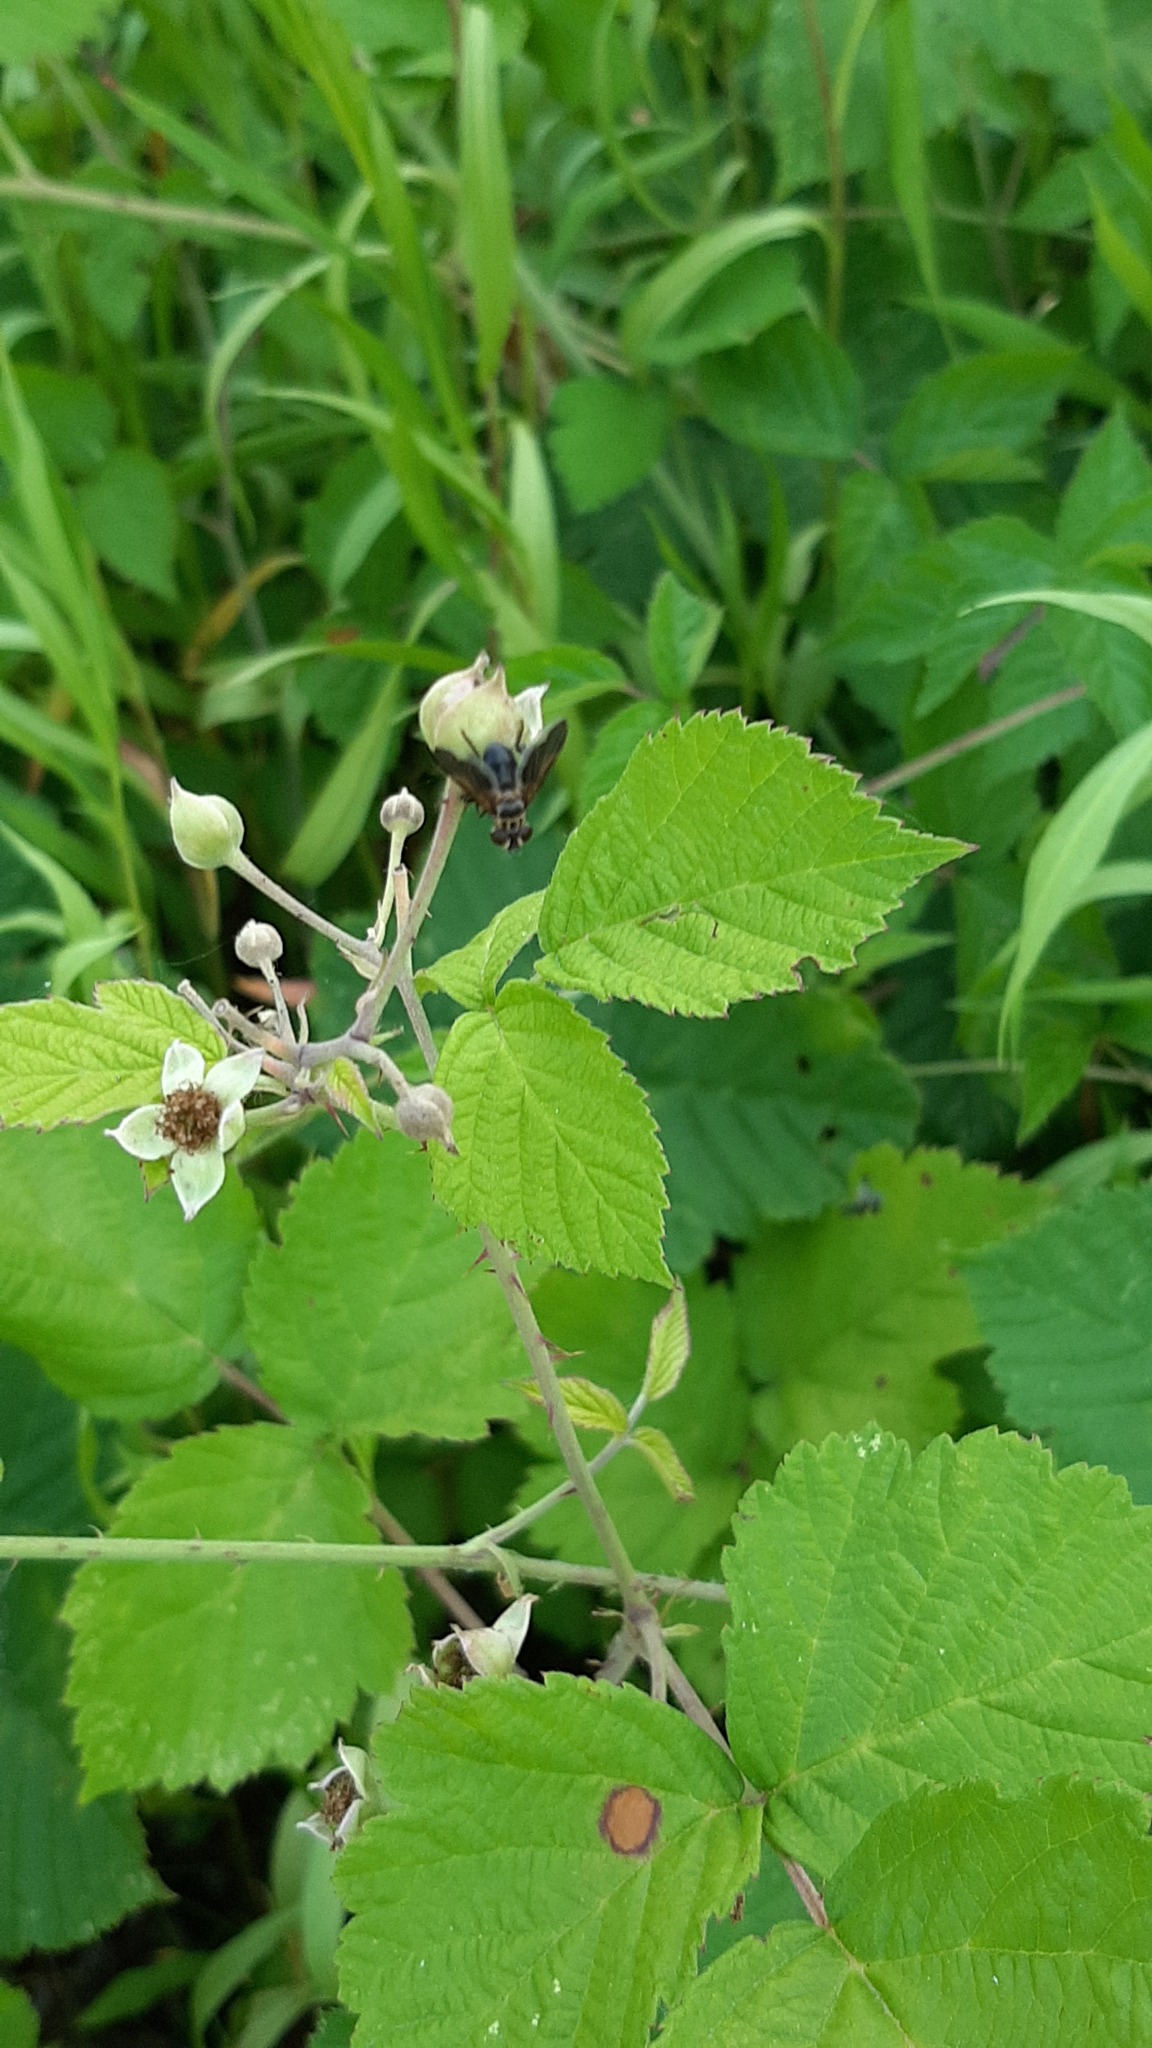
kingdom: Animalia
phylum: Arthropoda
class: Insecta
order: Diptera
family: Tachinidae
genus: Trichopoda
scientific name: Trichopoda pictipennis
